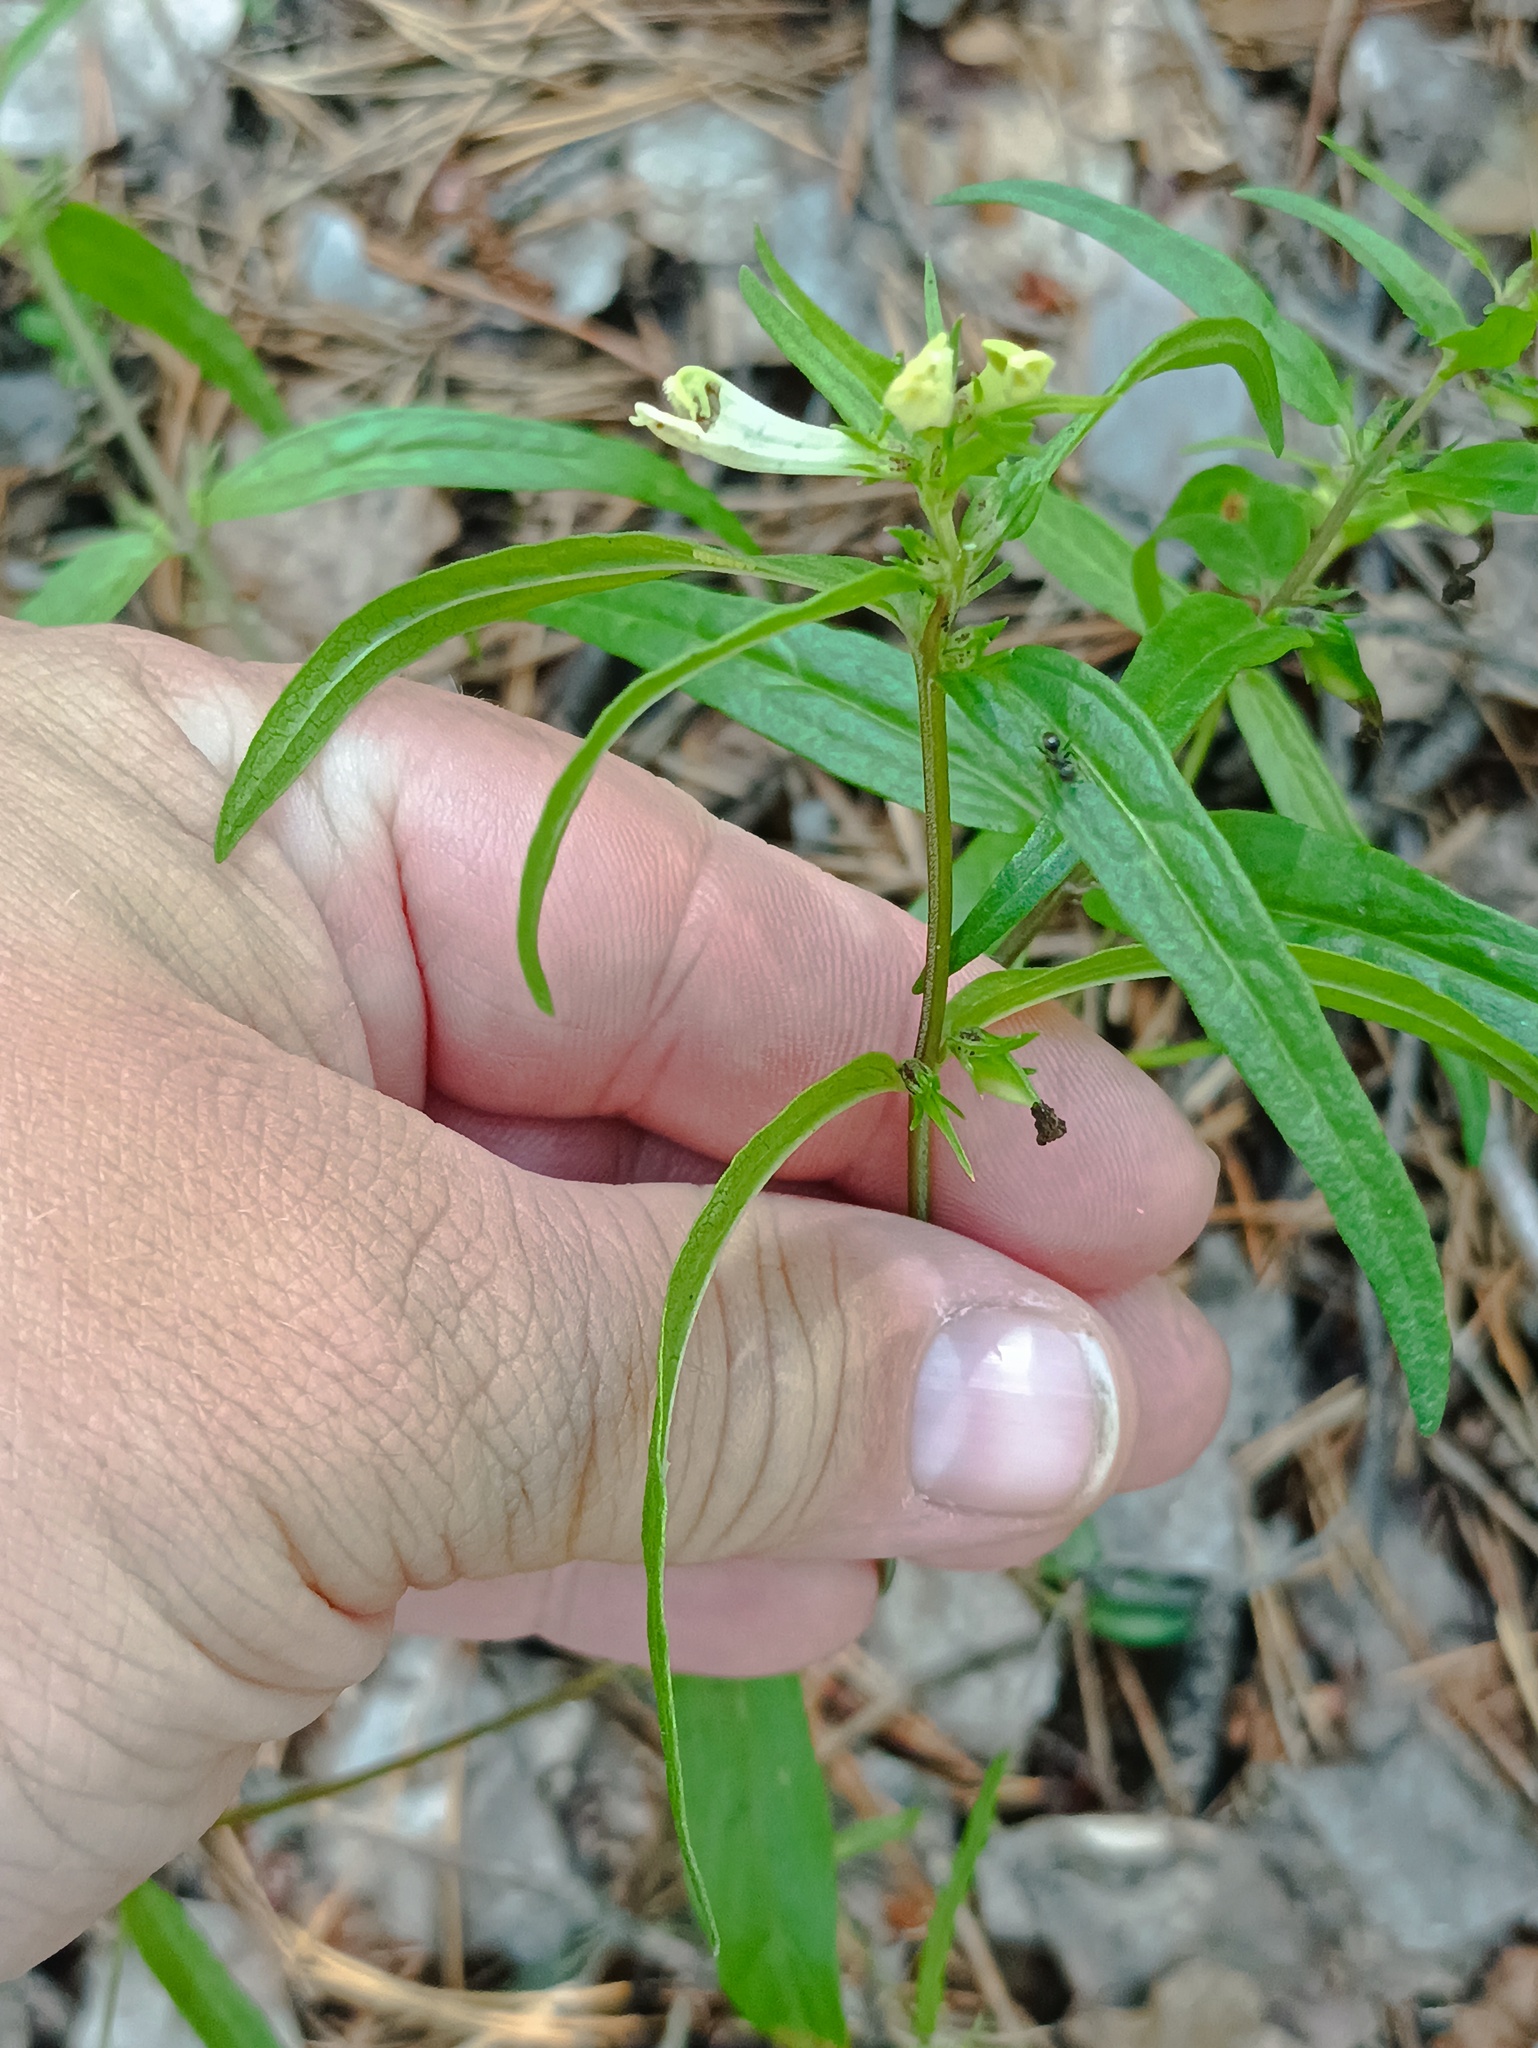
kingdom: Plantae
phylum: Tracheophyta
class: Magnoliopsida
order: Lamiales
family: Orobanchaceae
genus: Melampyrum
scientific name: Melampyrum pratense
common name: Common cow-wheat
